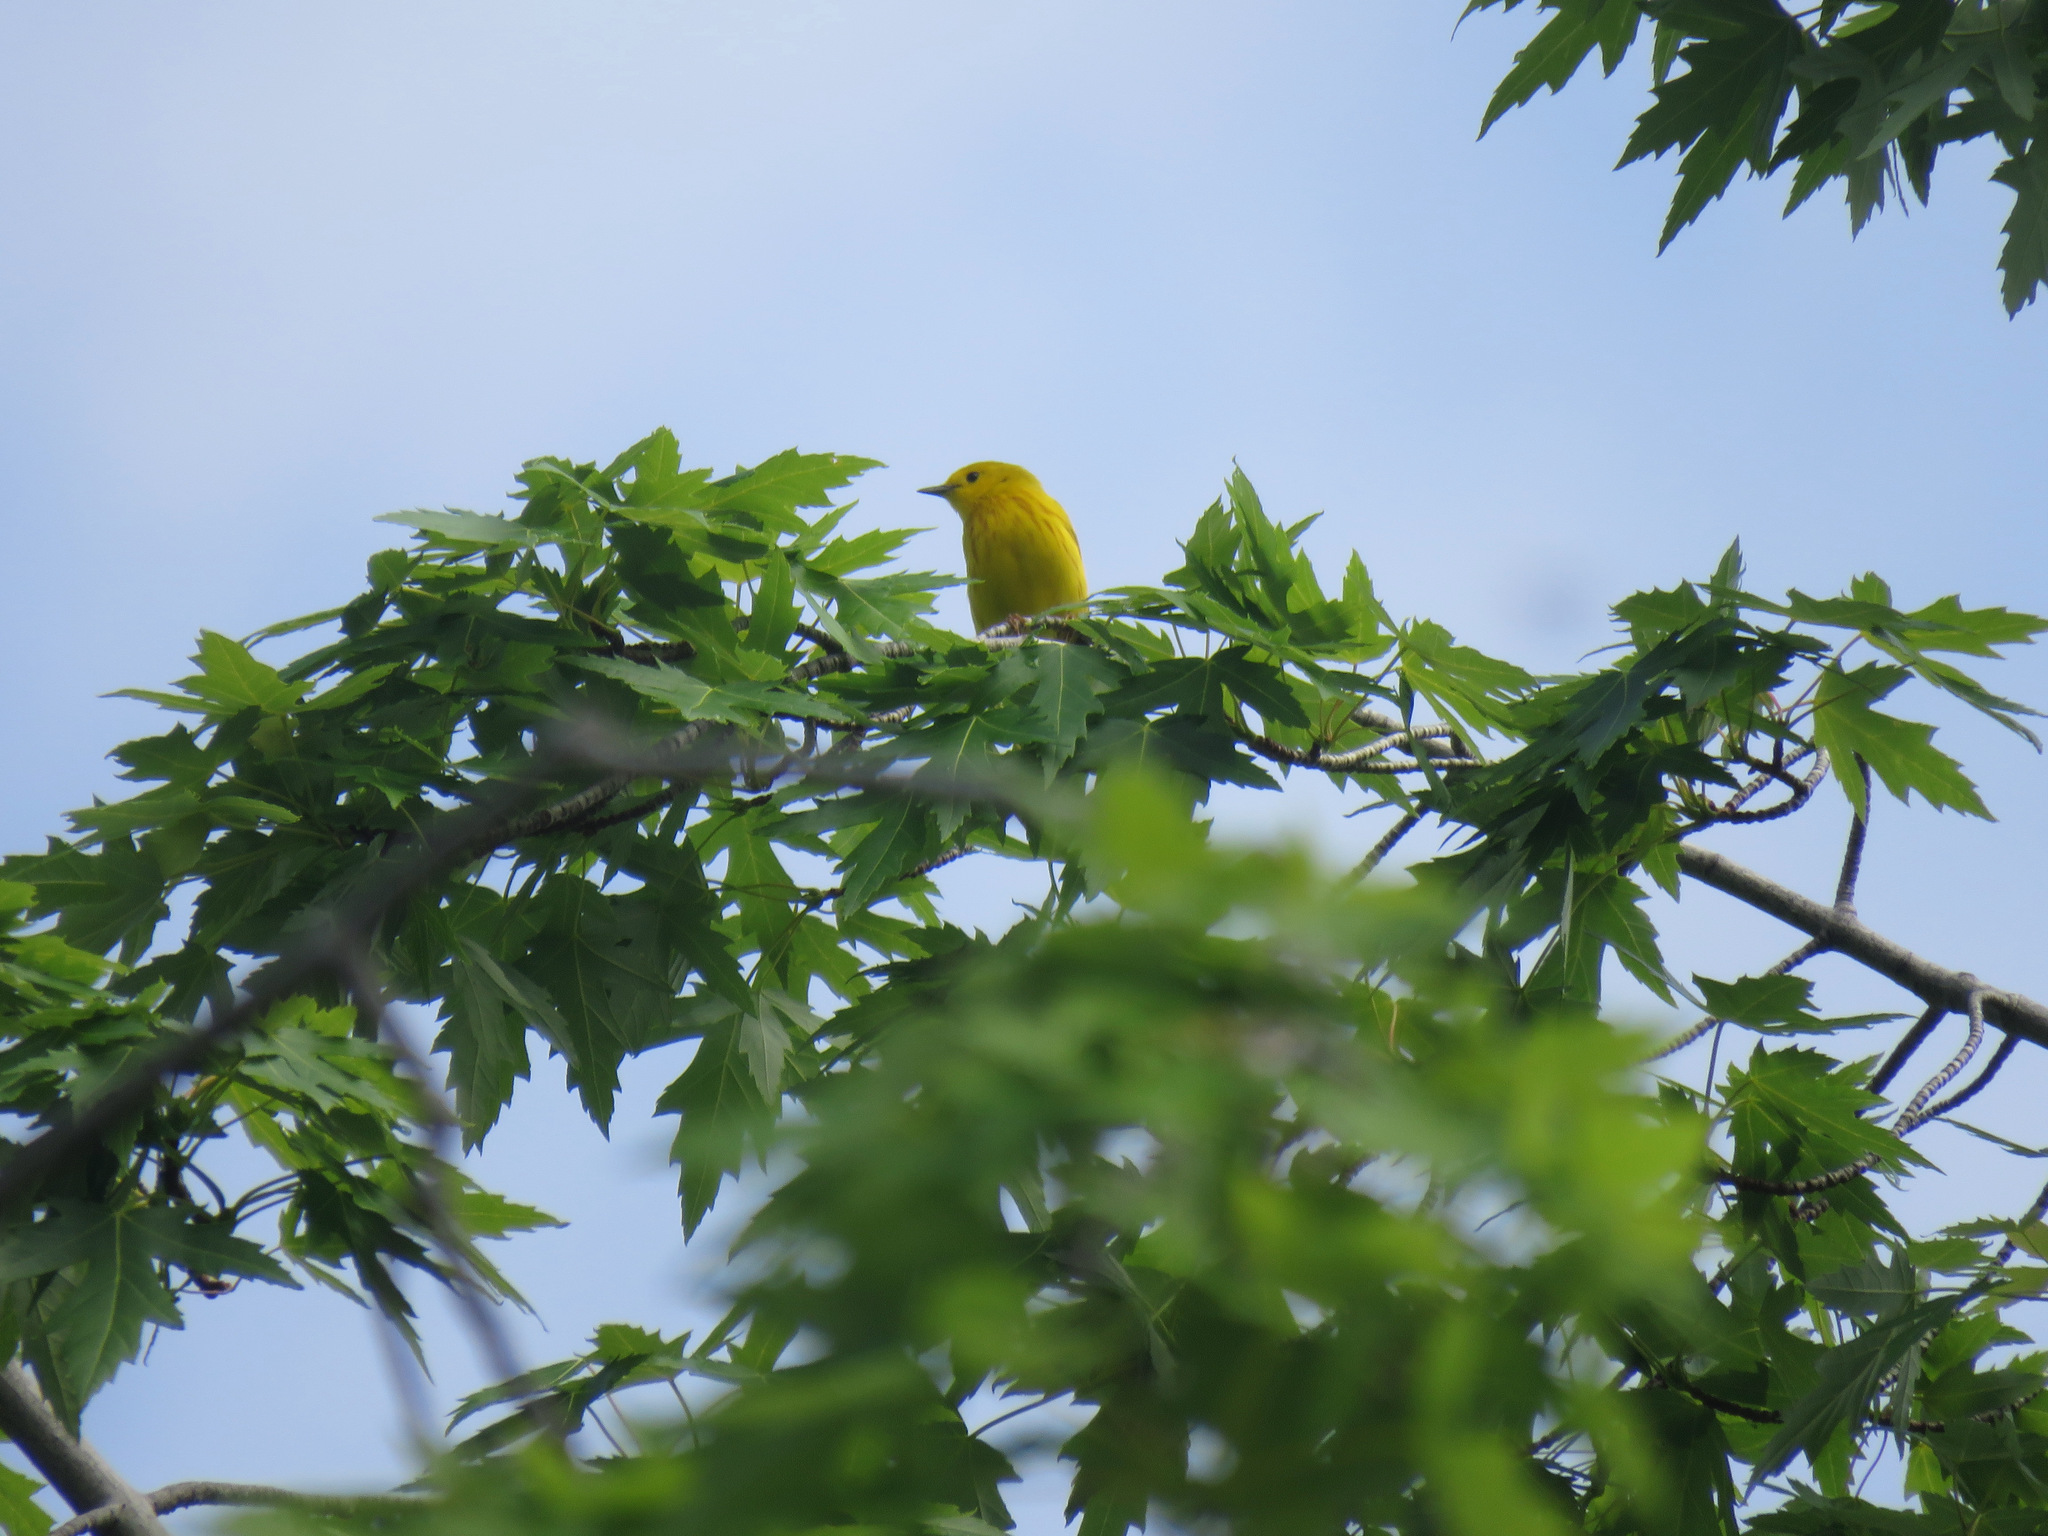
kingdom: Animalia
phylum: Chordata
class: Aves
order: Passeriformes
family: Parulidae
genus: Setophaga
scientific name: Setophaga petechia
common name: Yellow warbler
